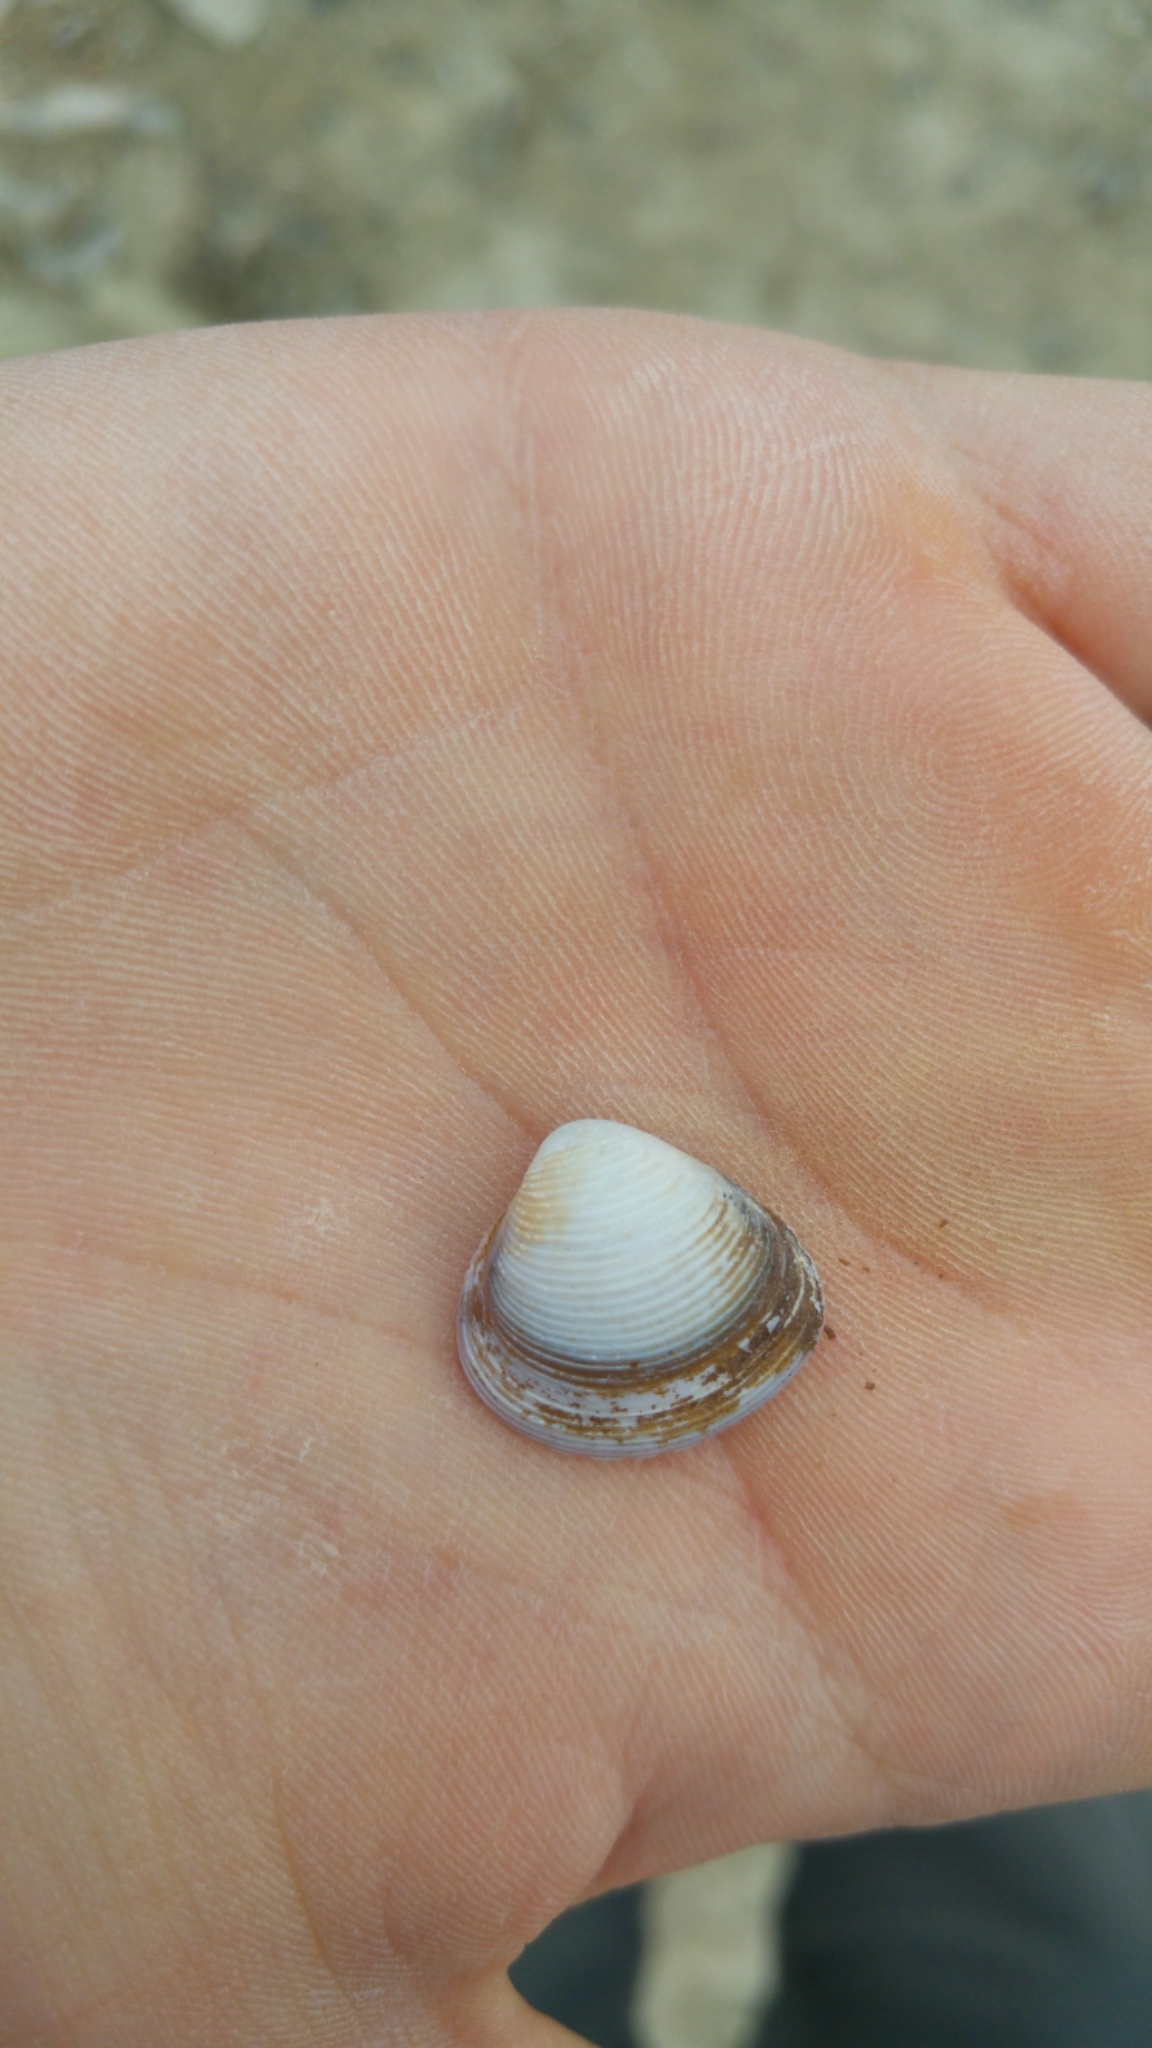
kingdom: Animalia
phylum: Mollusca
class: Bivalvia
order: Venerida
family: Cyrenidae
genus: Corbicula
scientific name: Corbicula fluminalis
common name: Asian clam
